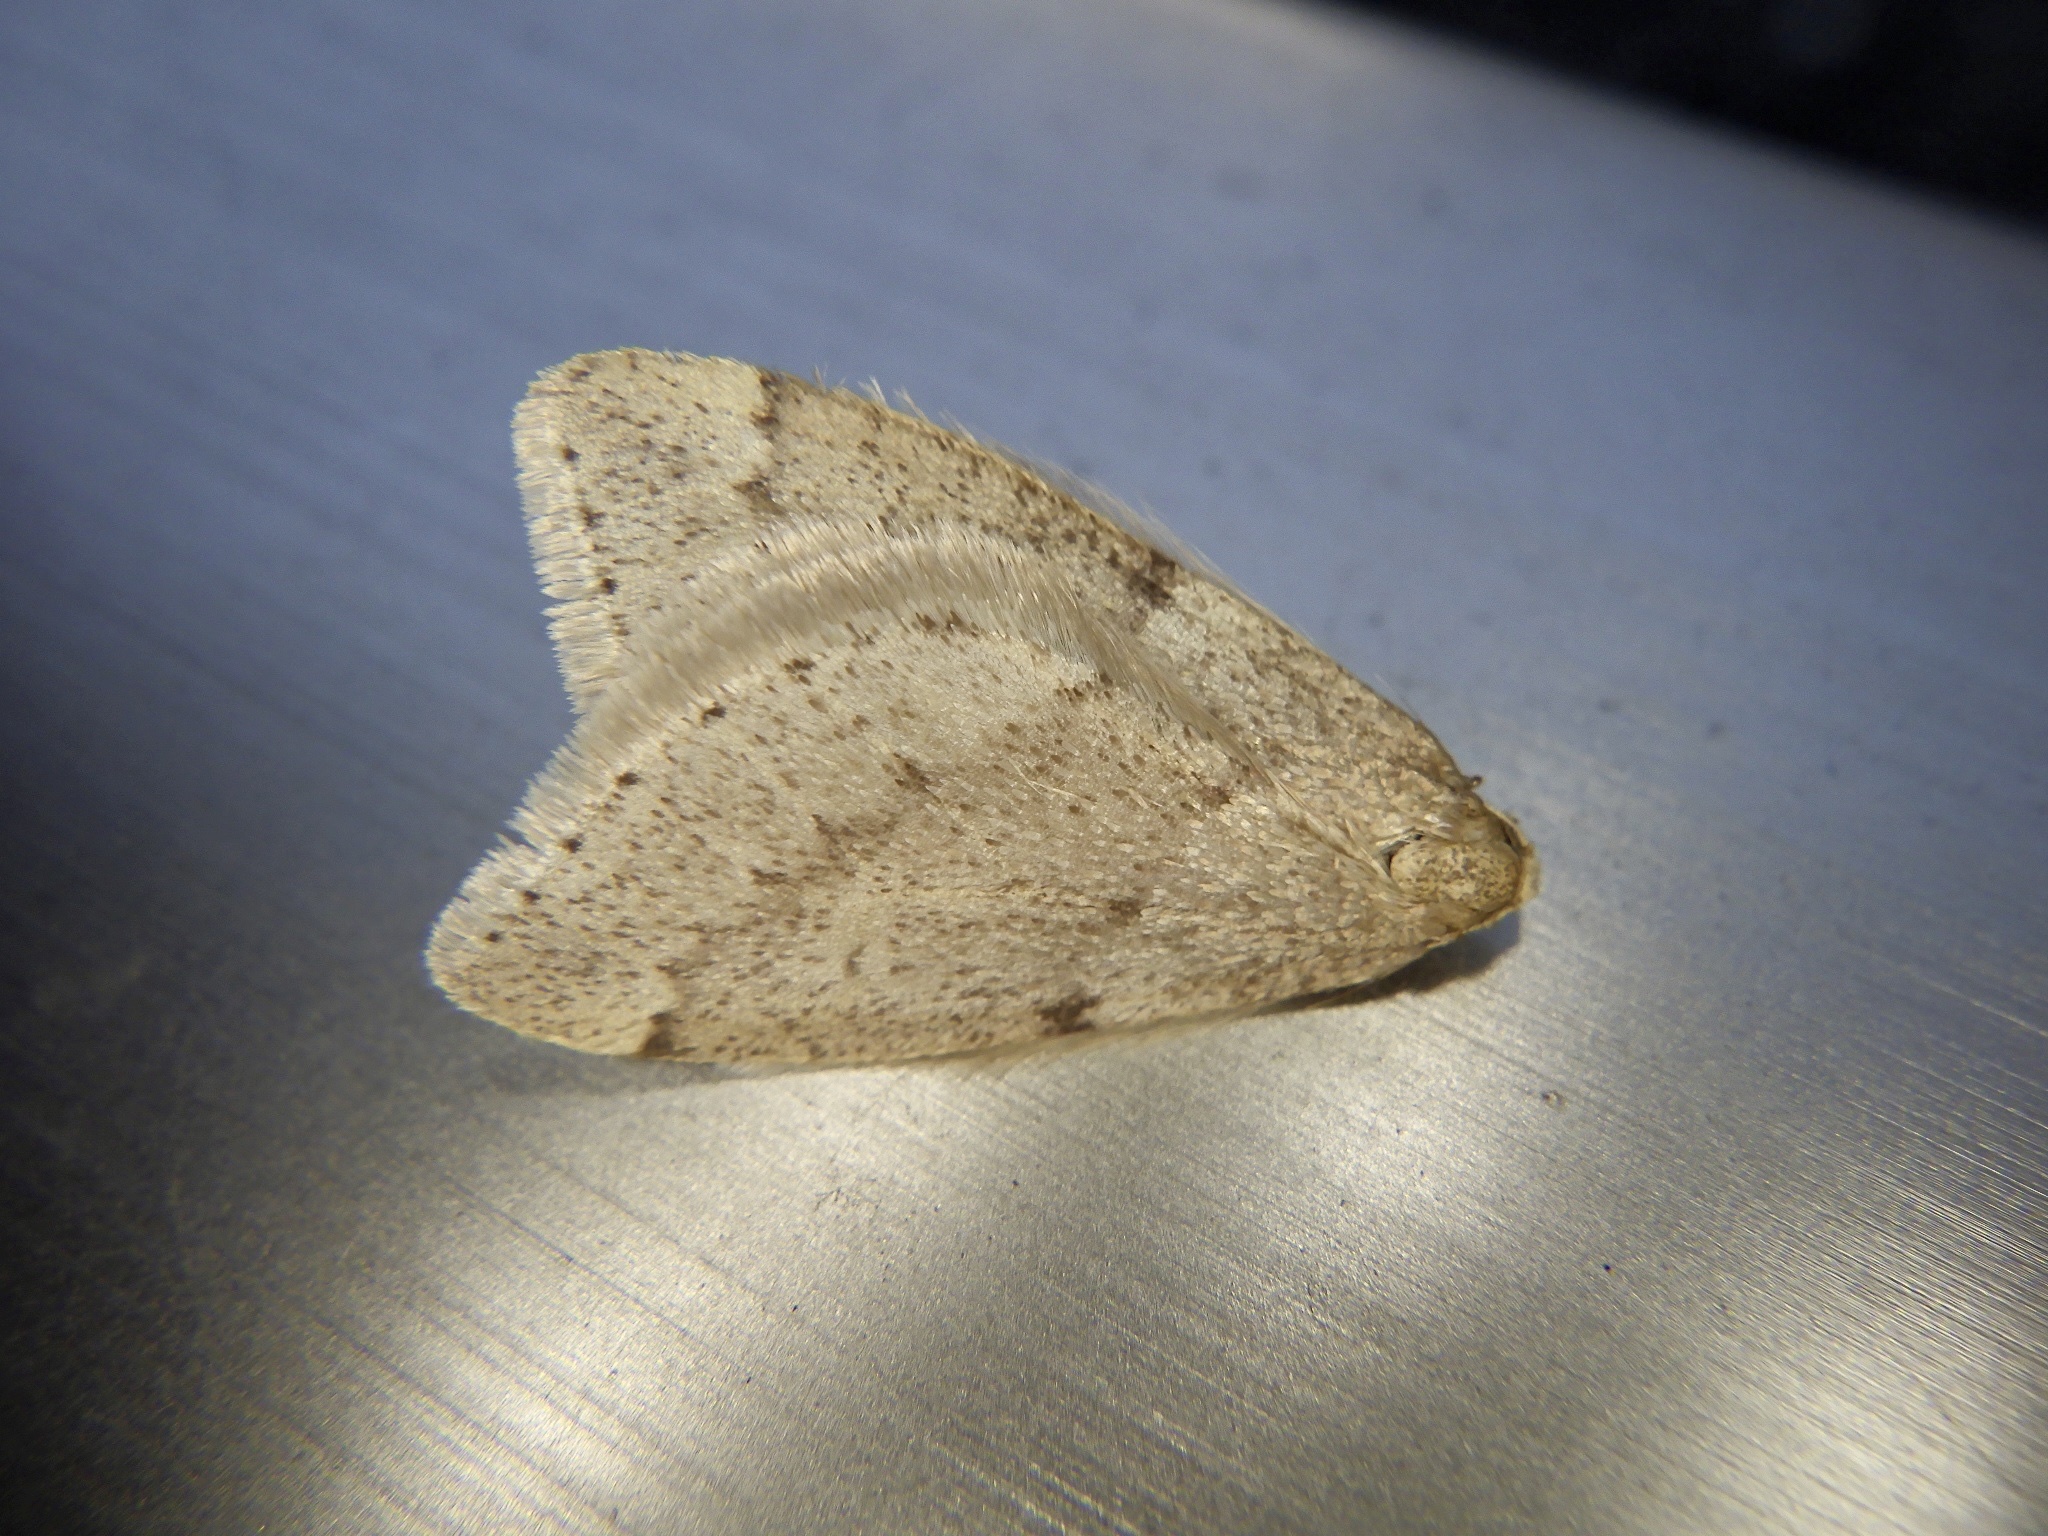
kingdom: Animalia
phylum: Arthropoda
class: Insecta
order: Lepidoptera
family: Geometridae
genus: Inurois
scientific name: Inurois tenuis
